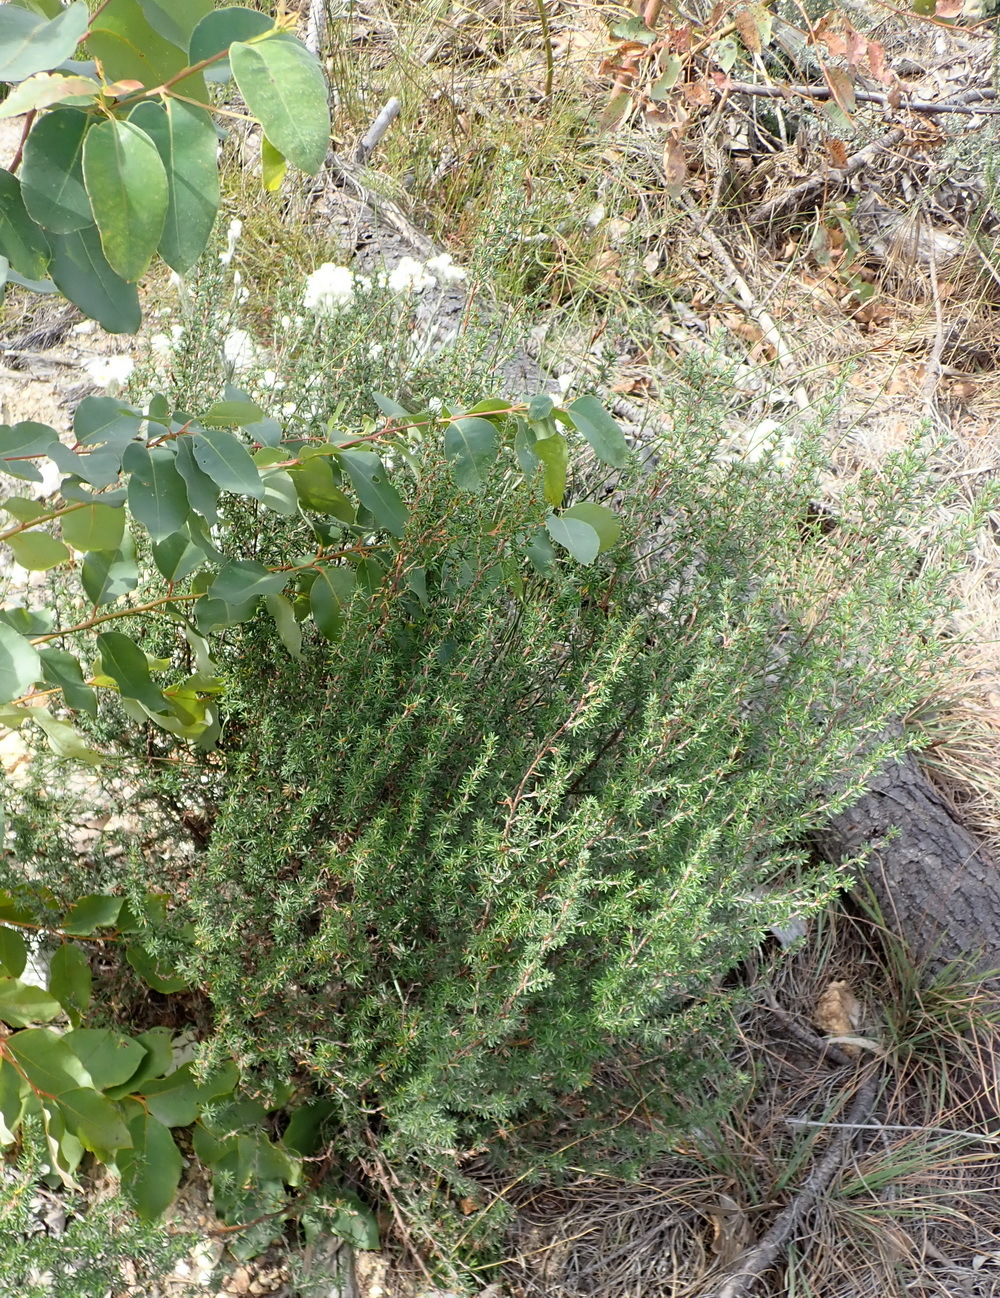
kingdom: Plantae
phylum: Tracheophyta
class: Magnoliopsida
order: Rosales
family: Rosaceae
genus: Cliffortia
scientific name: Cliffortia stricta
